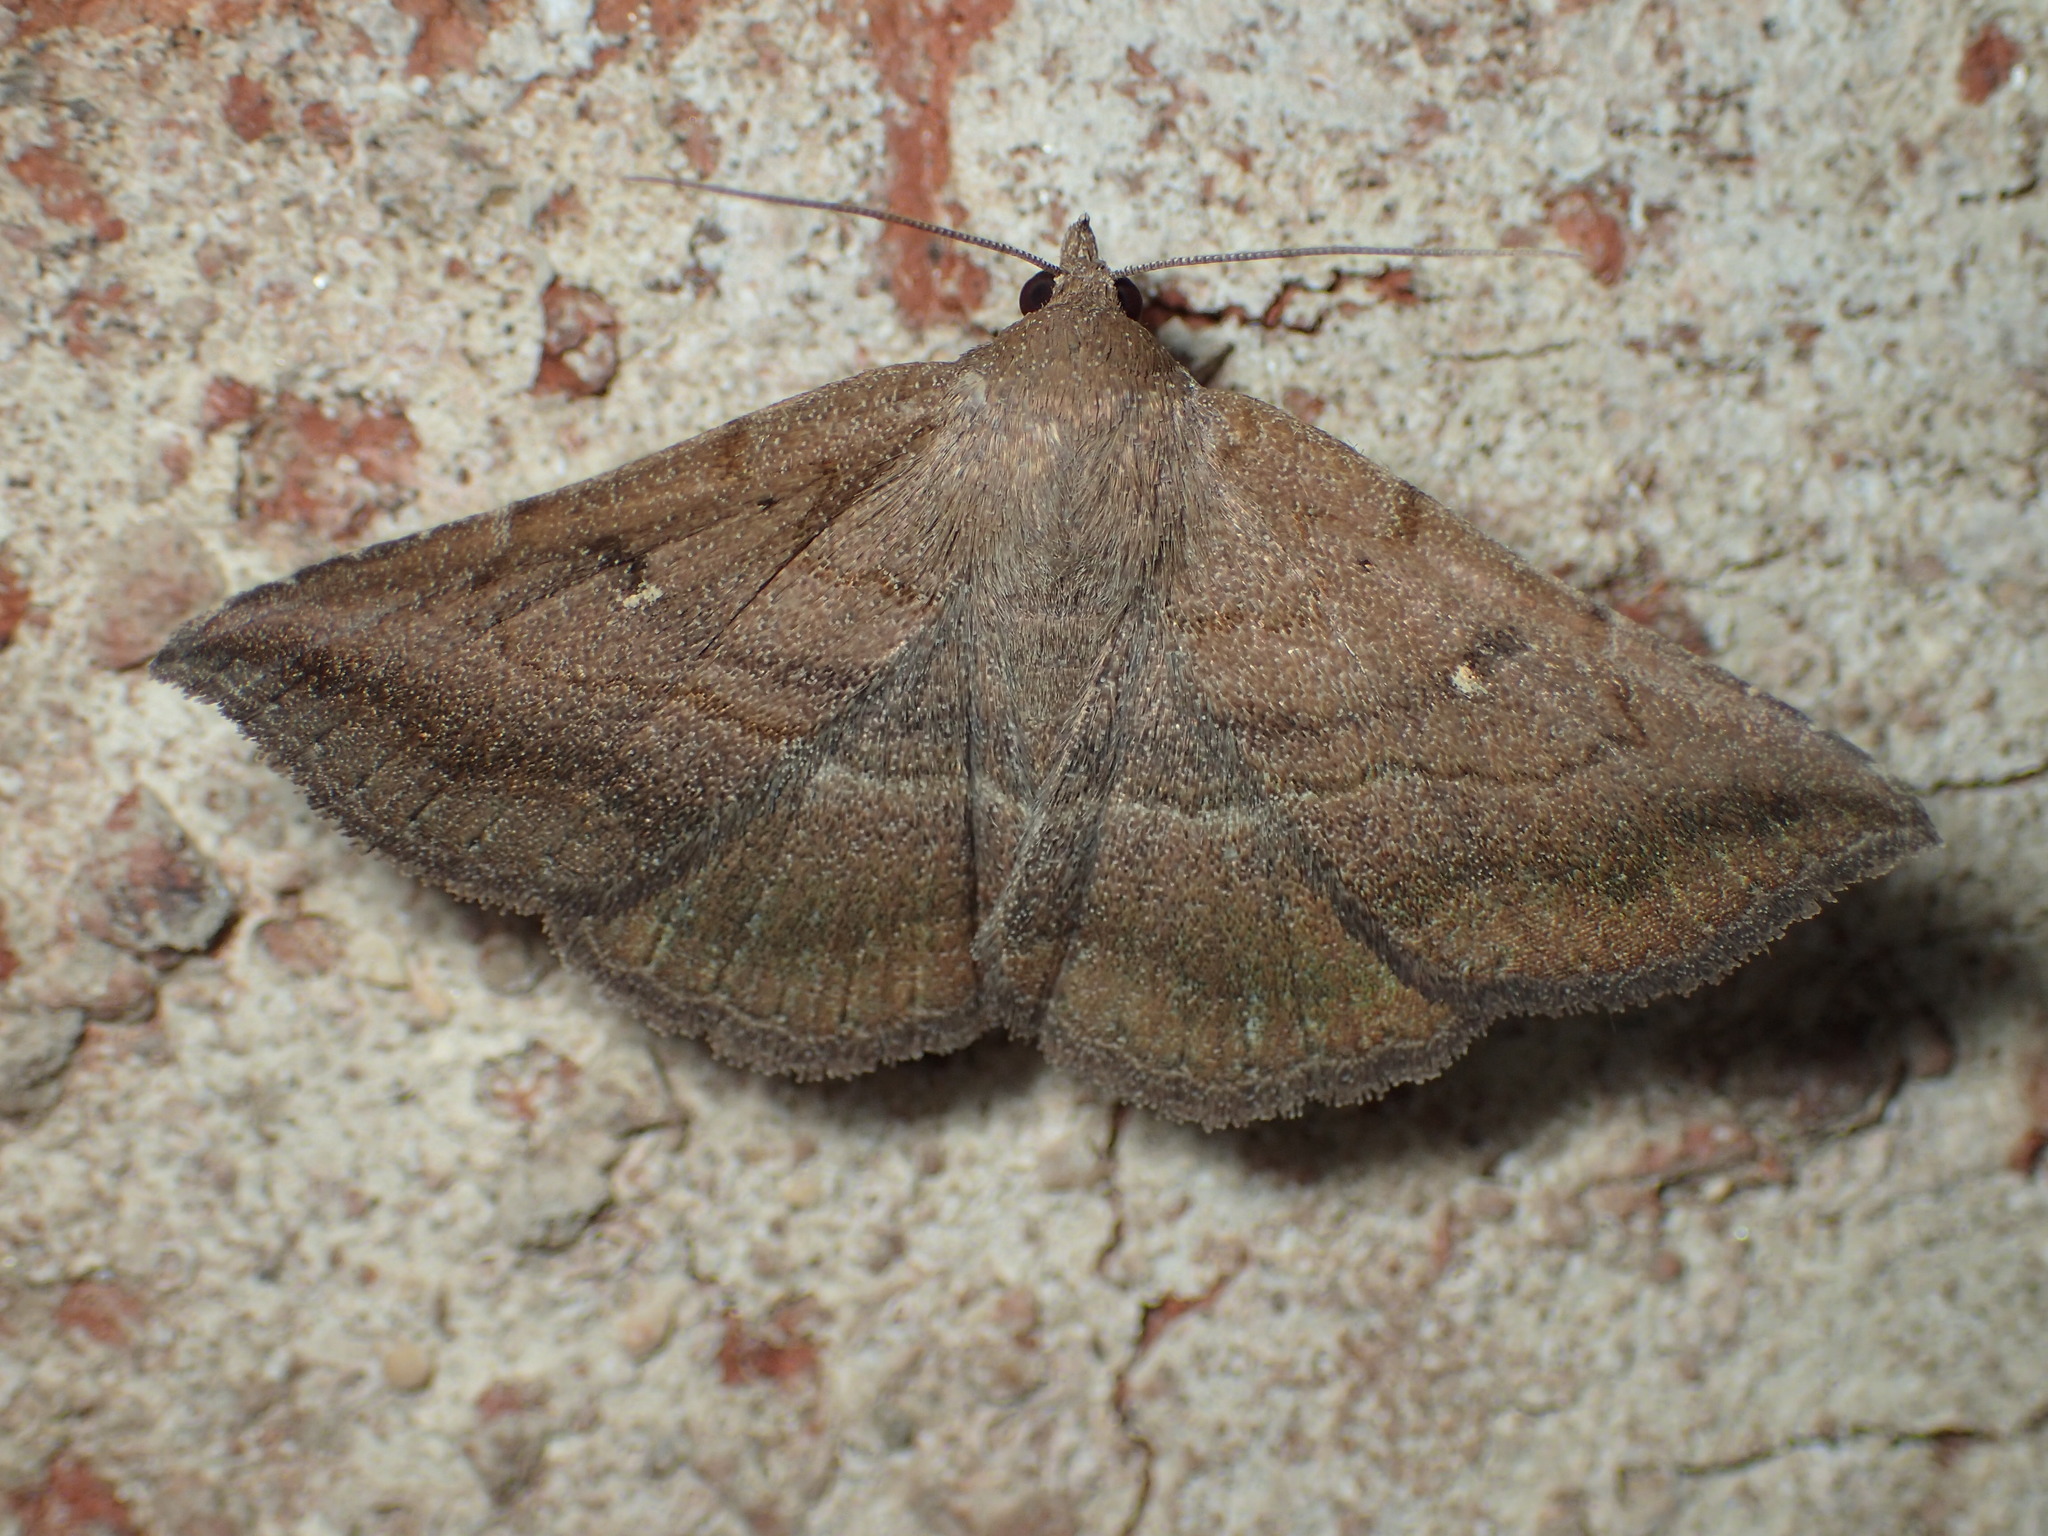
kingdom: Animalia
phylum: Arthropoda
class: Insecta
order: Lepidoptera
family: Erebidae
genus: Lesmone
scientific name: Lesmone detrahens
